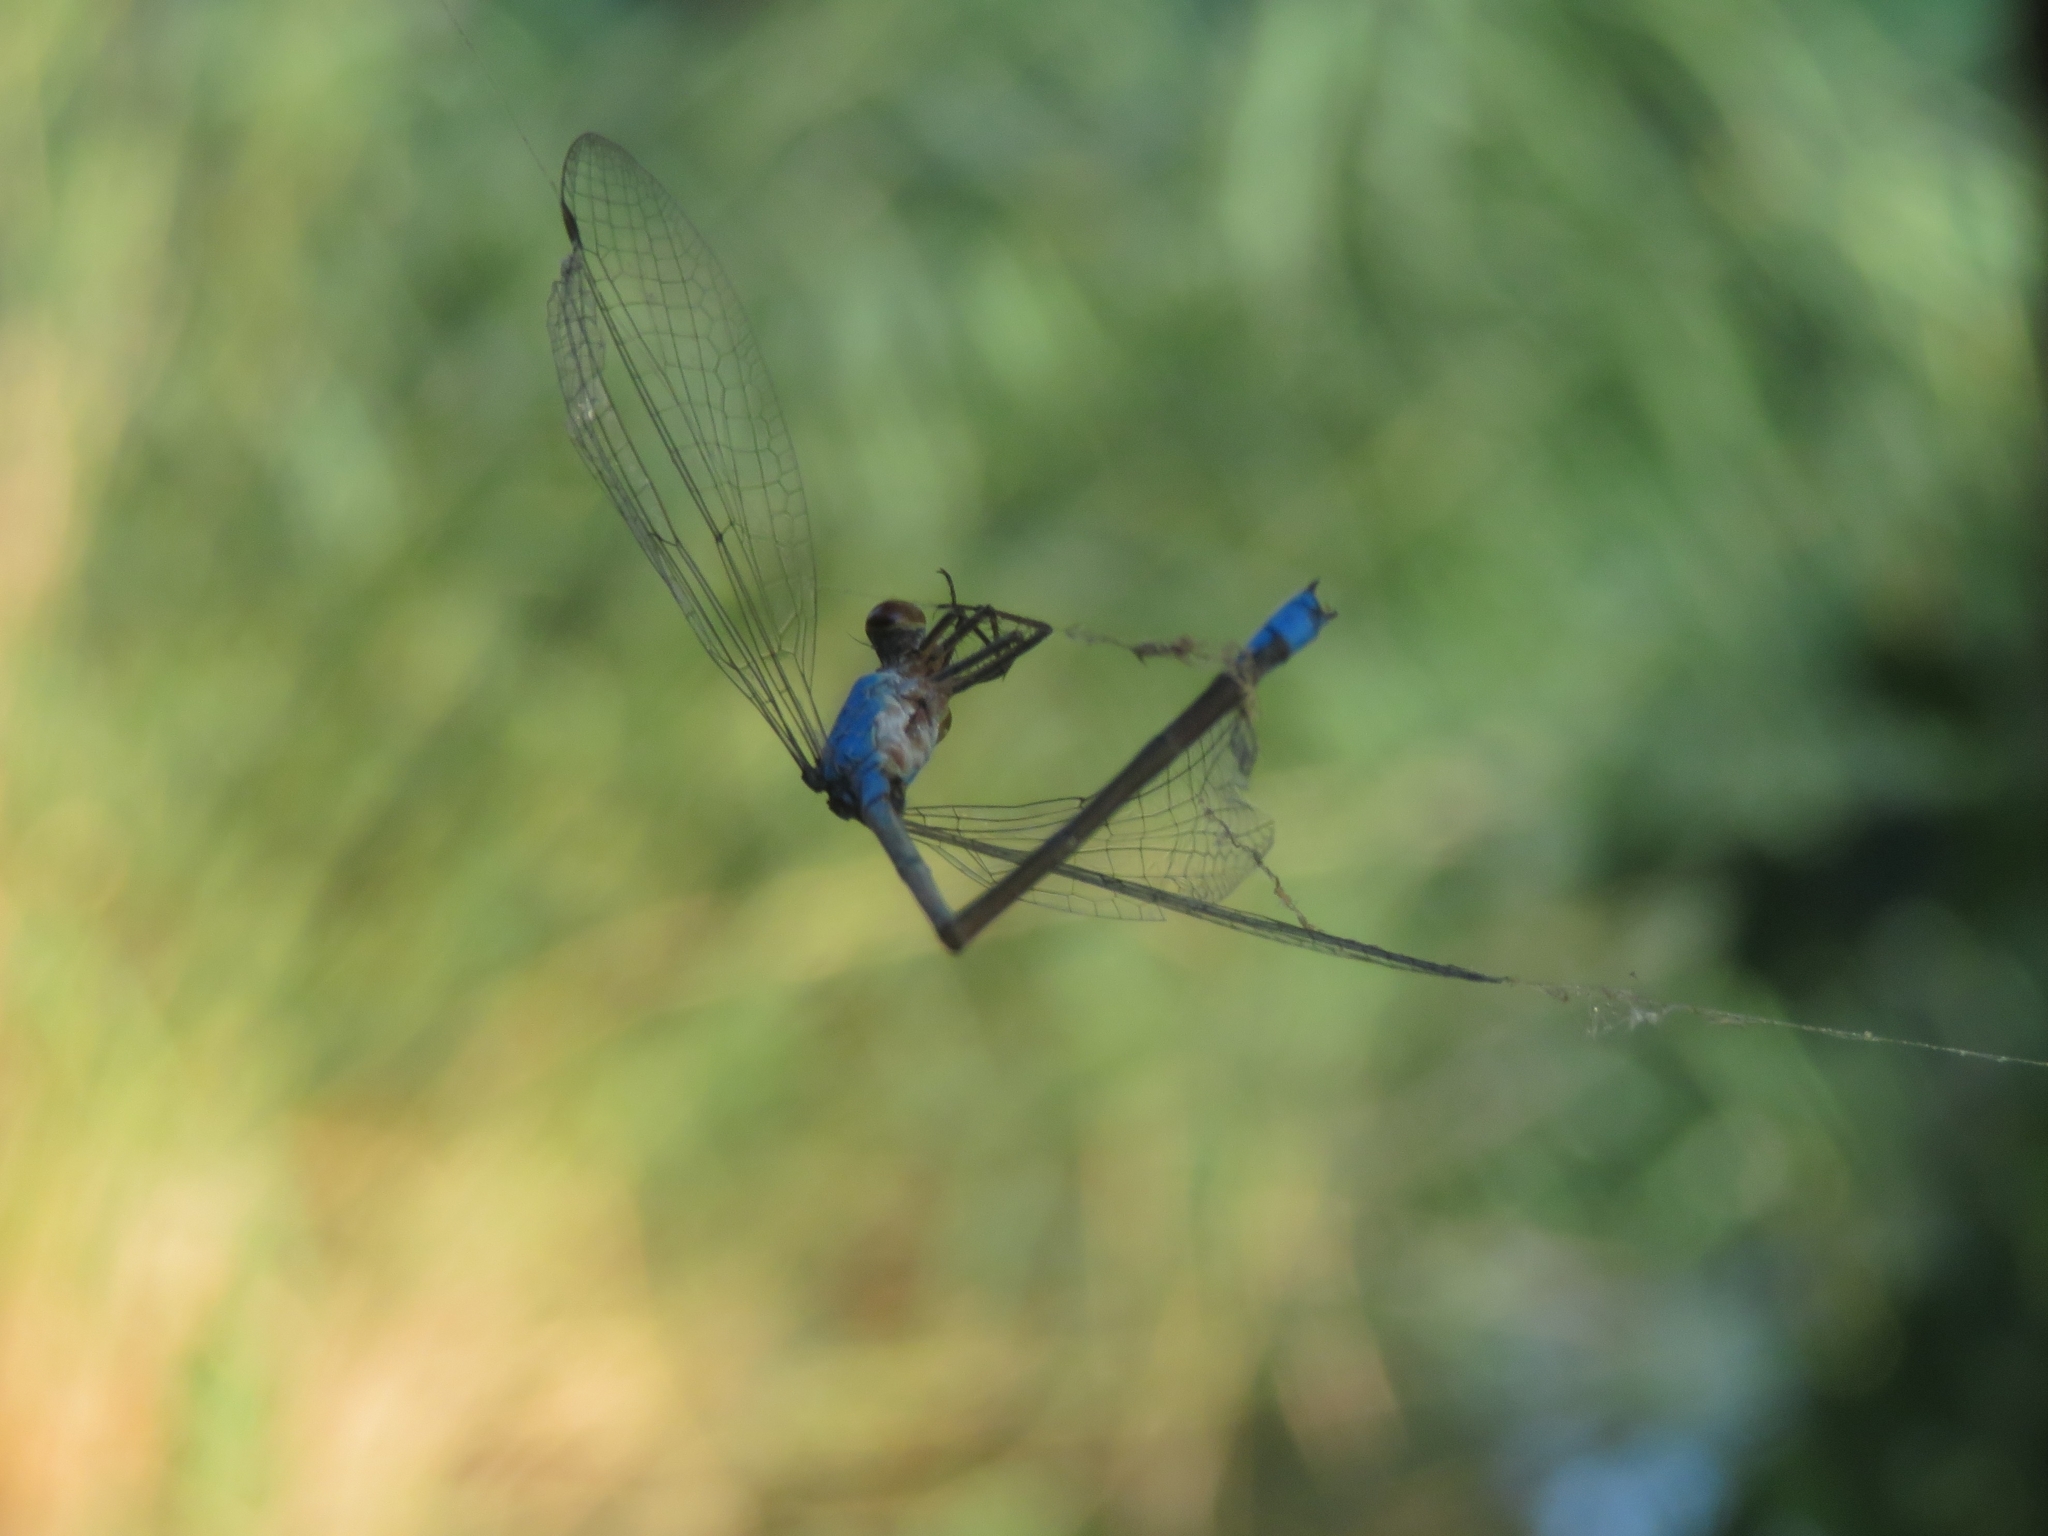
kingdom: Animalia
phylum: Arthropoda
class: Insecta
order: Odonata
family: Coenagrionidae
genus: Erythromma
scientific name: Erythromma viridulum
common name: Small red-eyed damselfly
